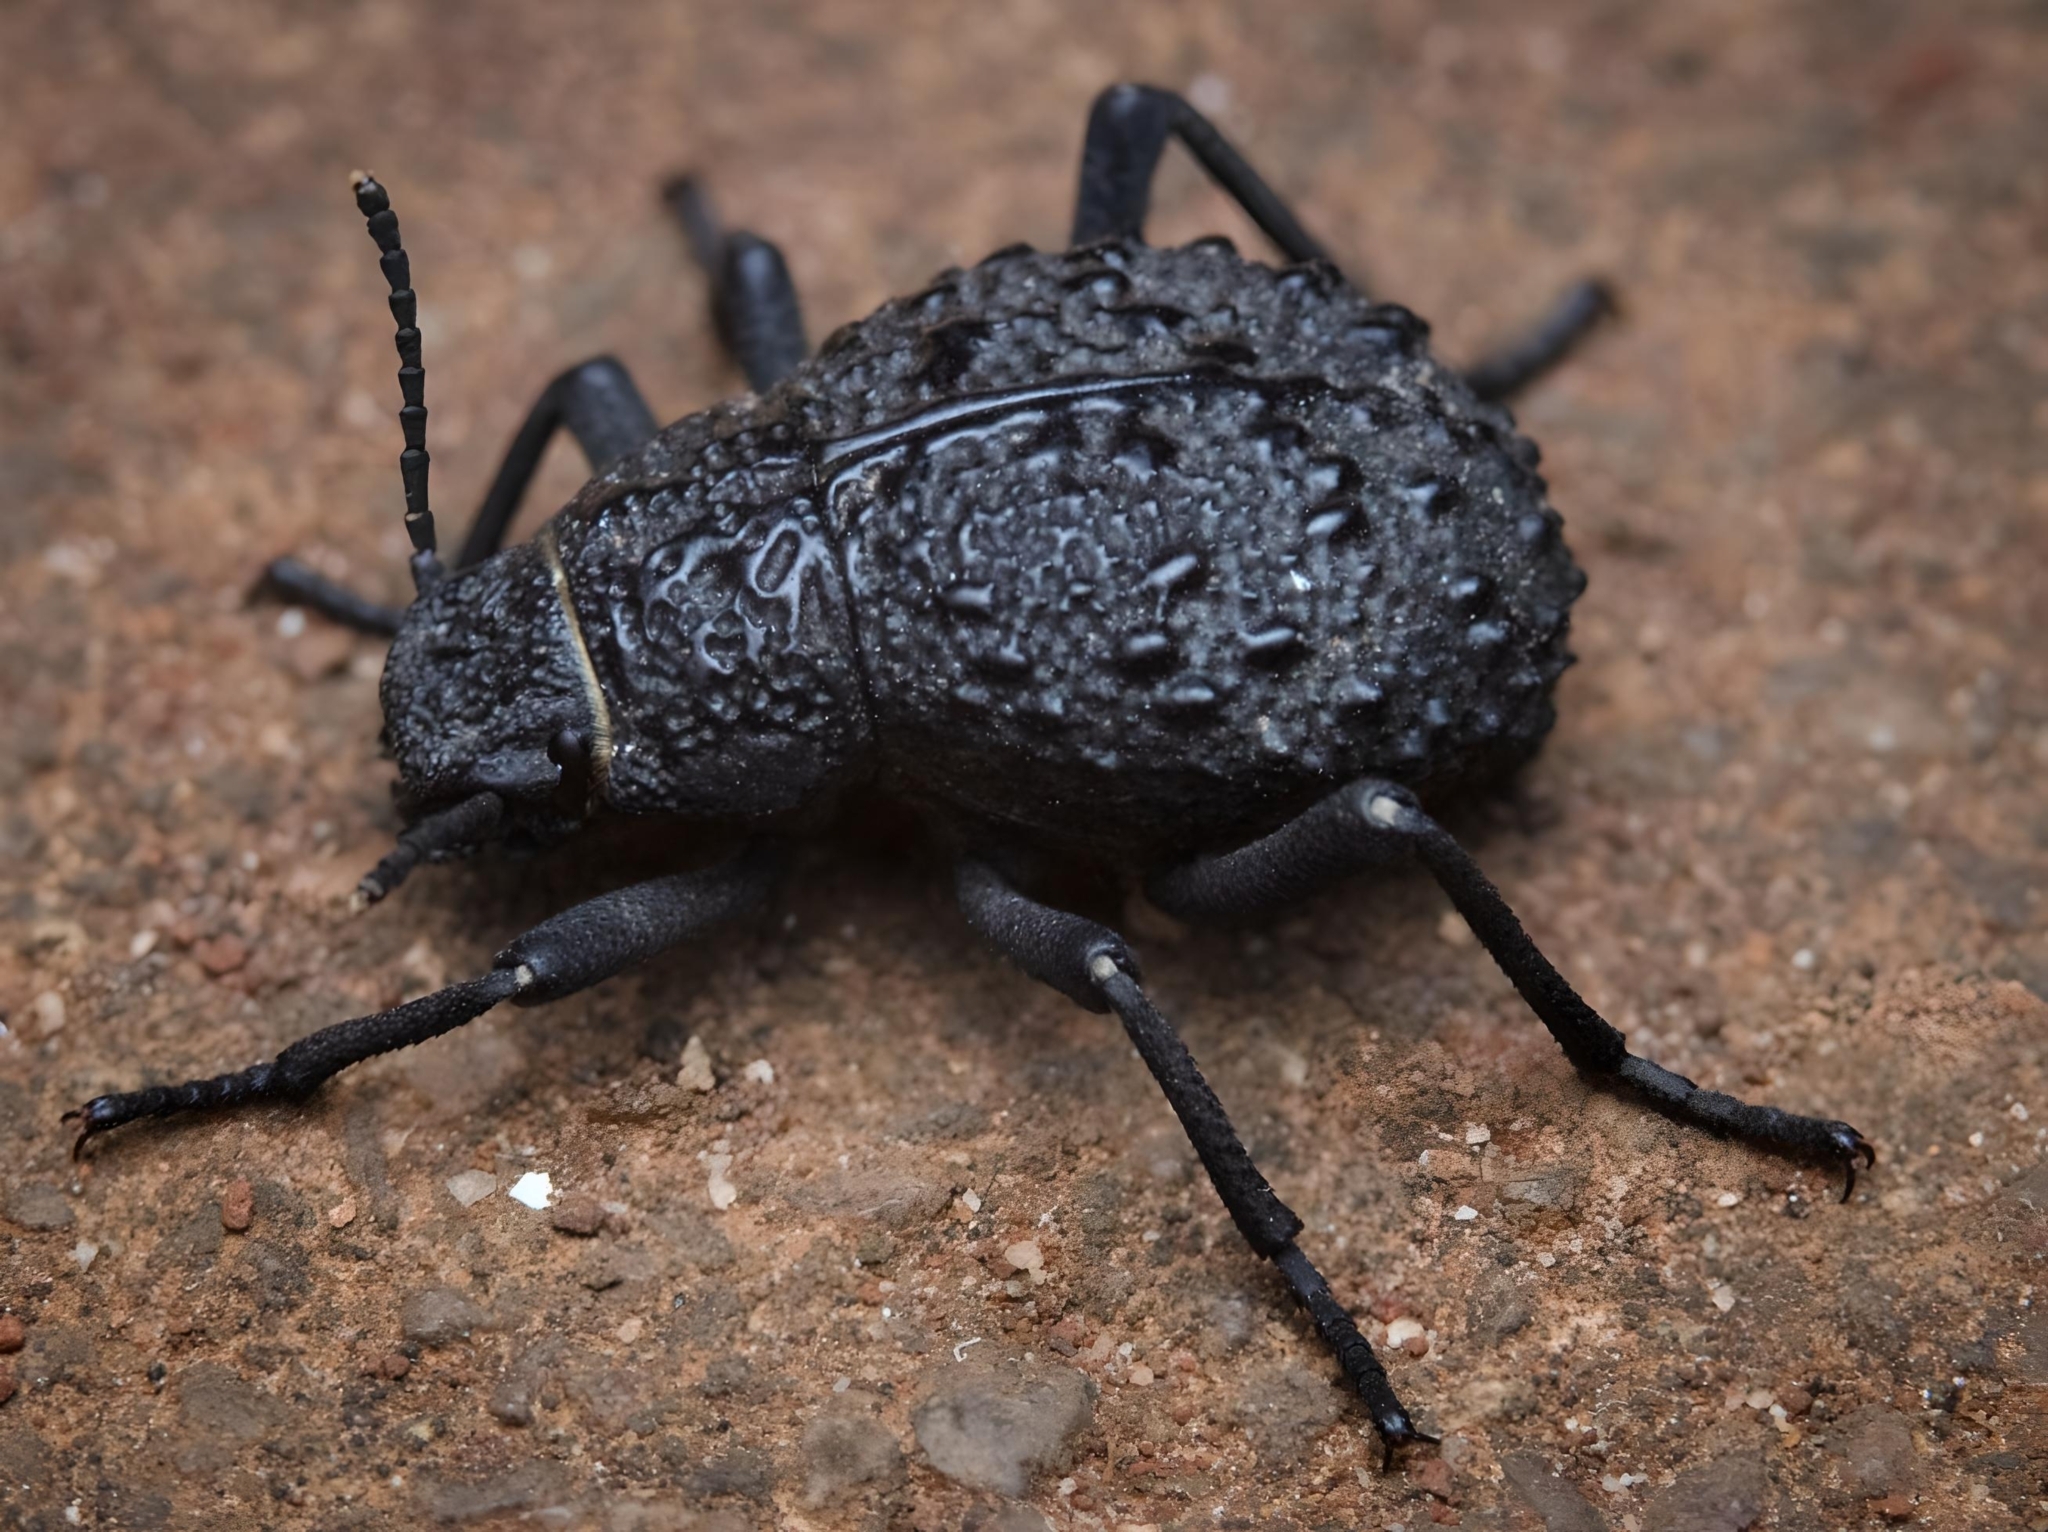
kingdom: Animalia
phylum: Arthropoda
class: Insecta
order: Coleoptera
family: Tenebrionidae
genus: Renatiella
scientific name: Renatiella
